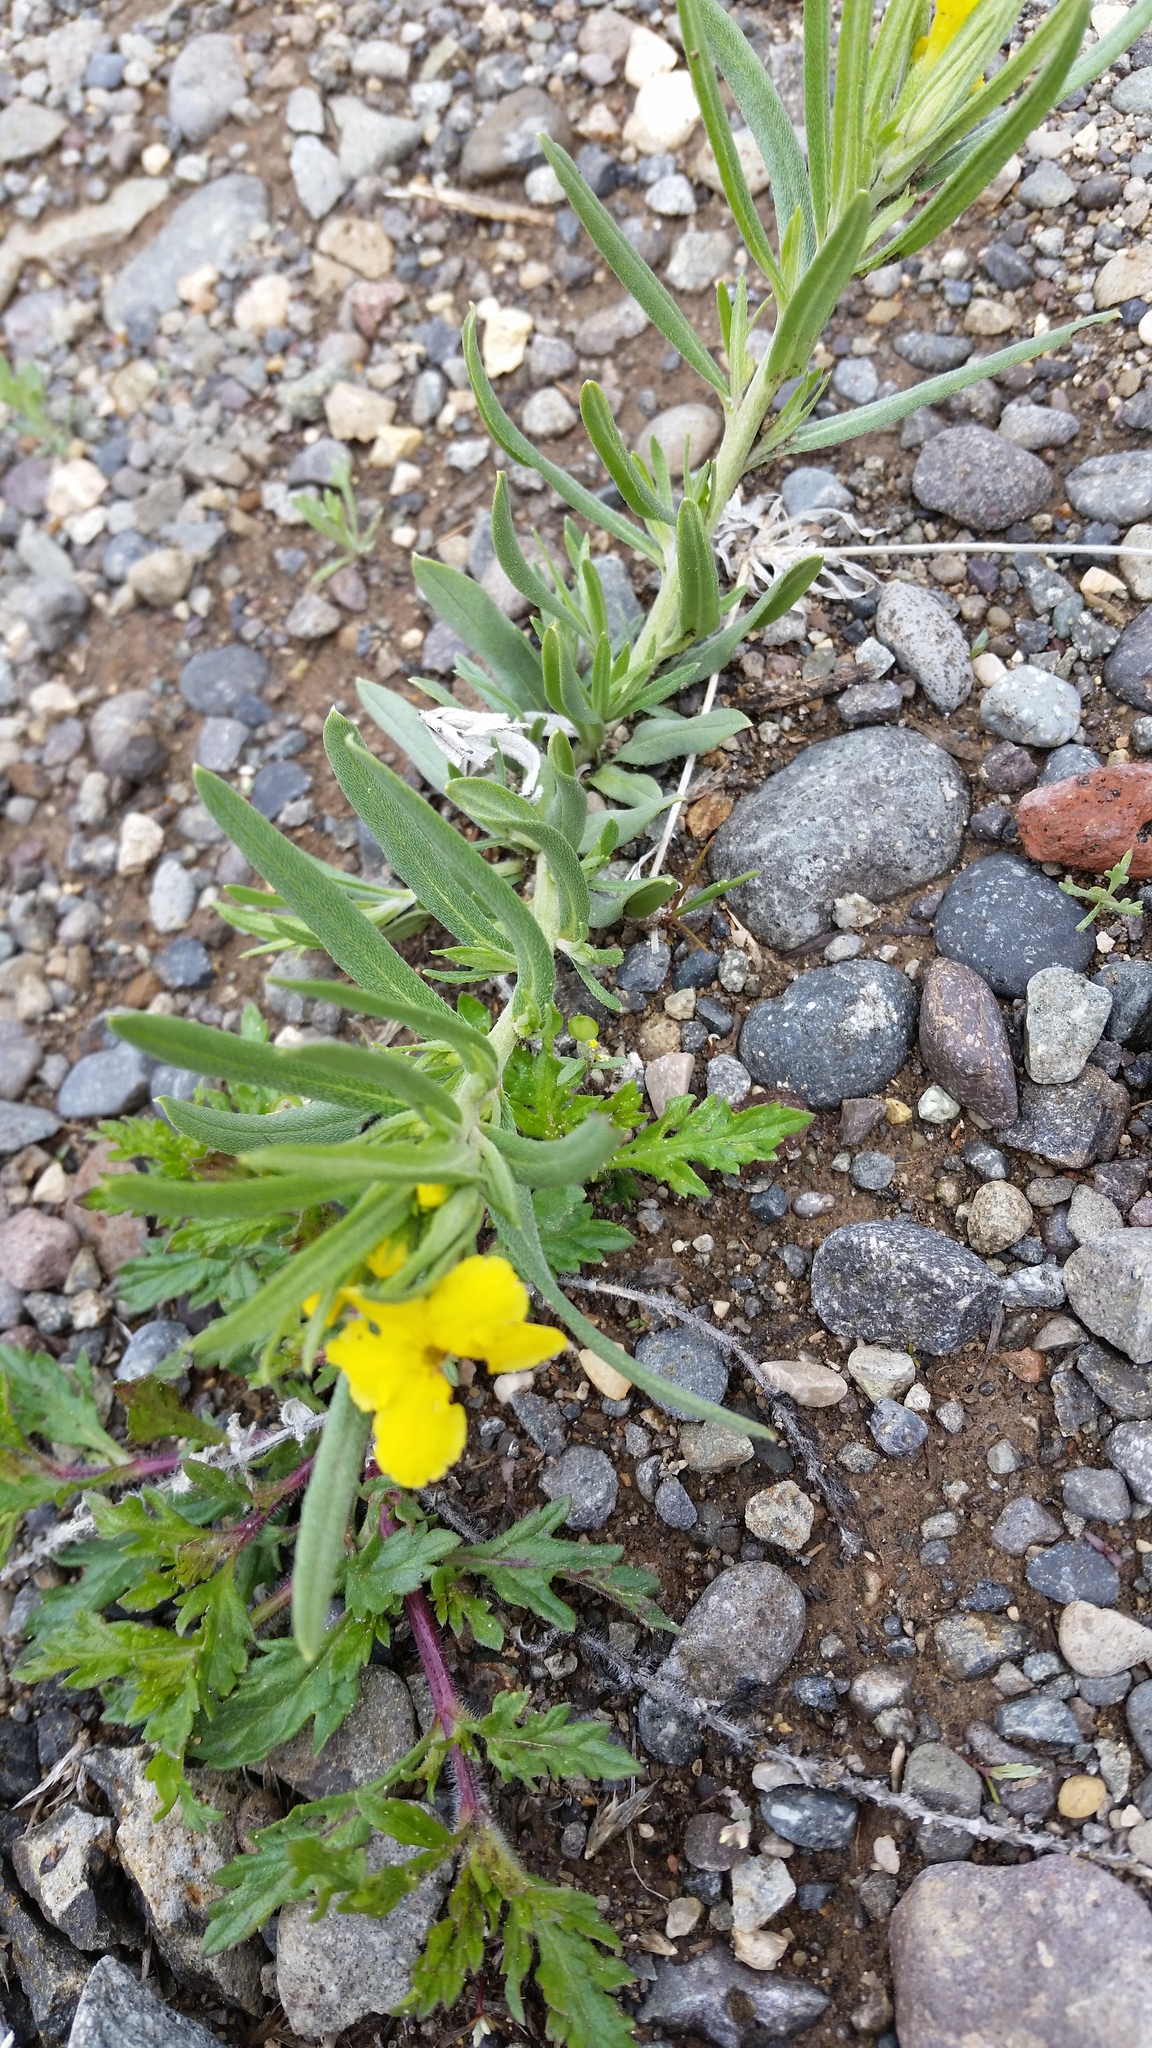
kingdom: Plantae
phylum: Tracheophyta
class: Magnoliopsida
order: Boraginales
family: Boraginaceae
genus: Lithospermum
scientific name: Lithospermum incisum
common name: Fringed gromwell
